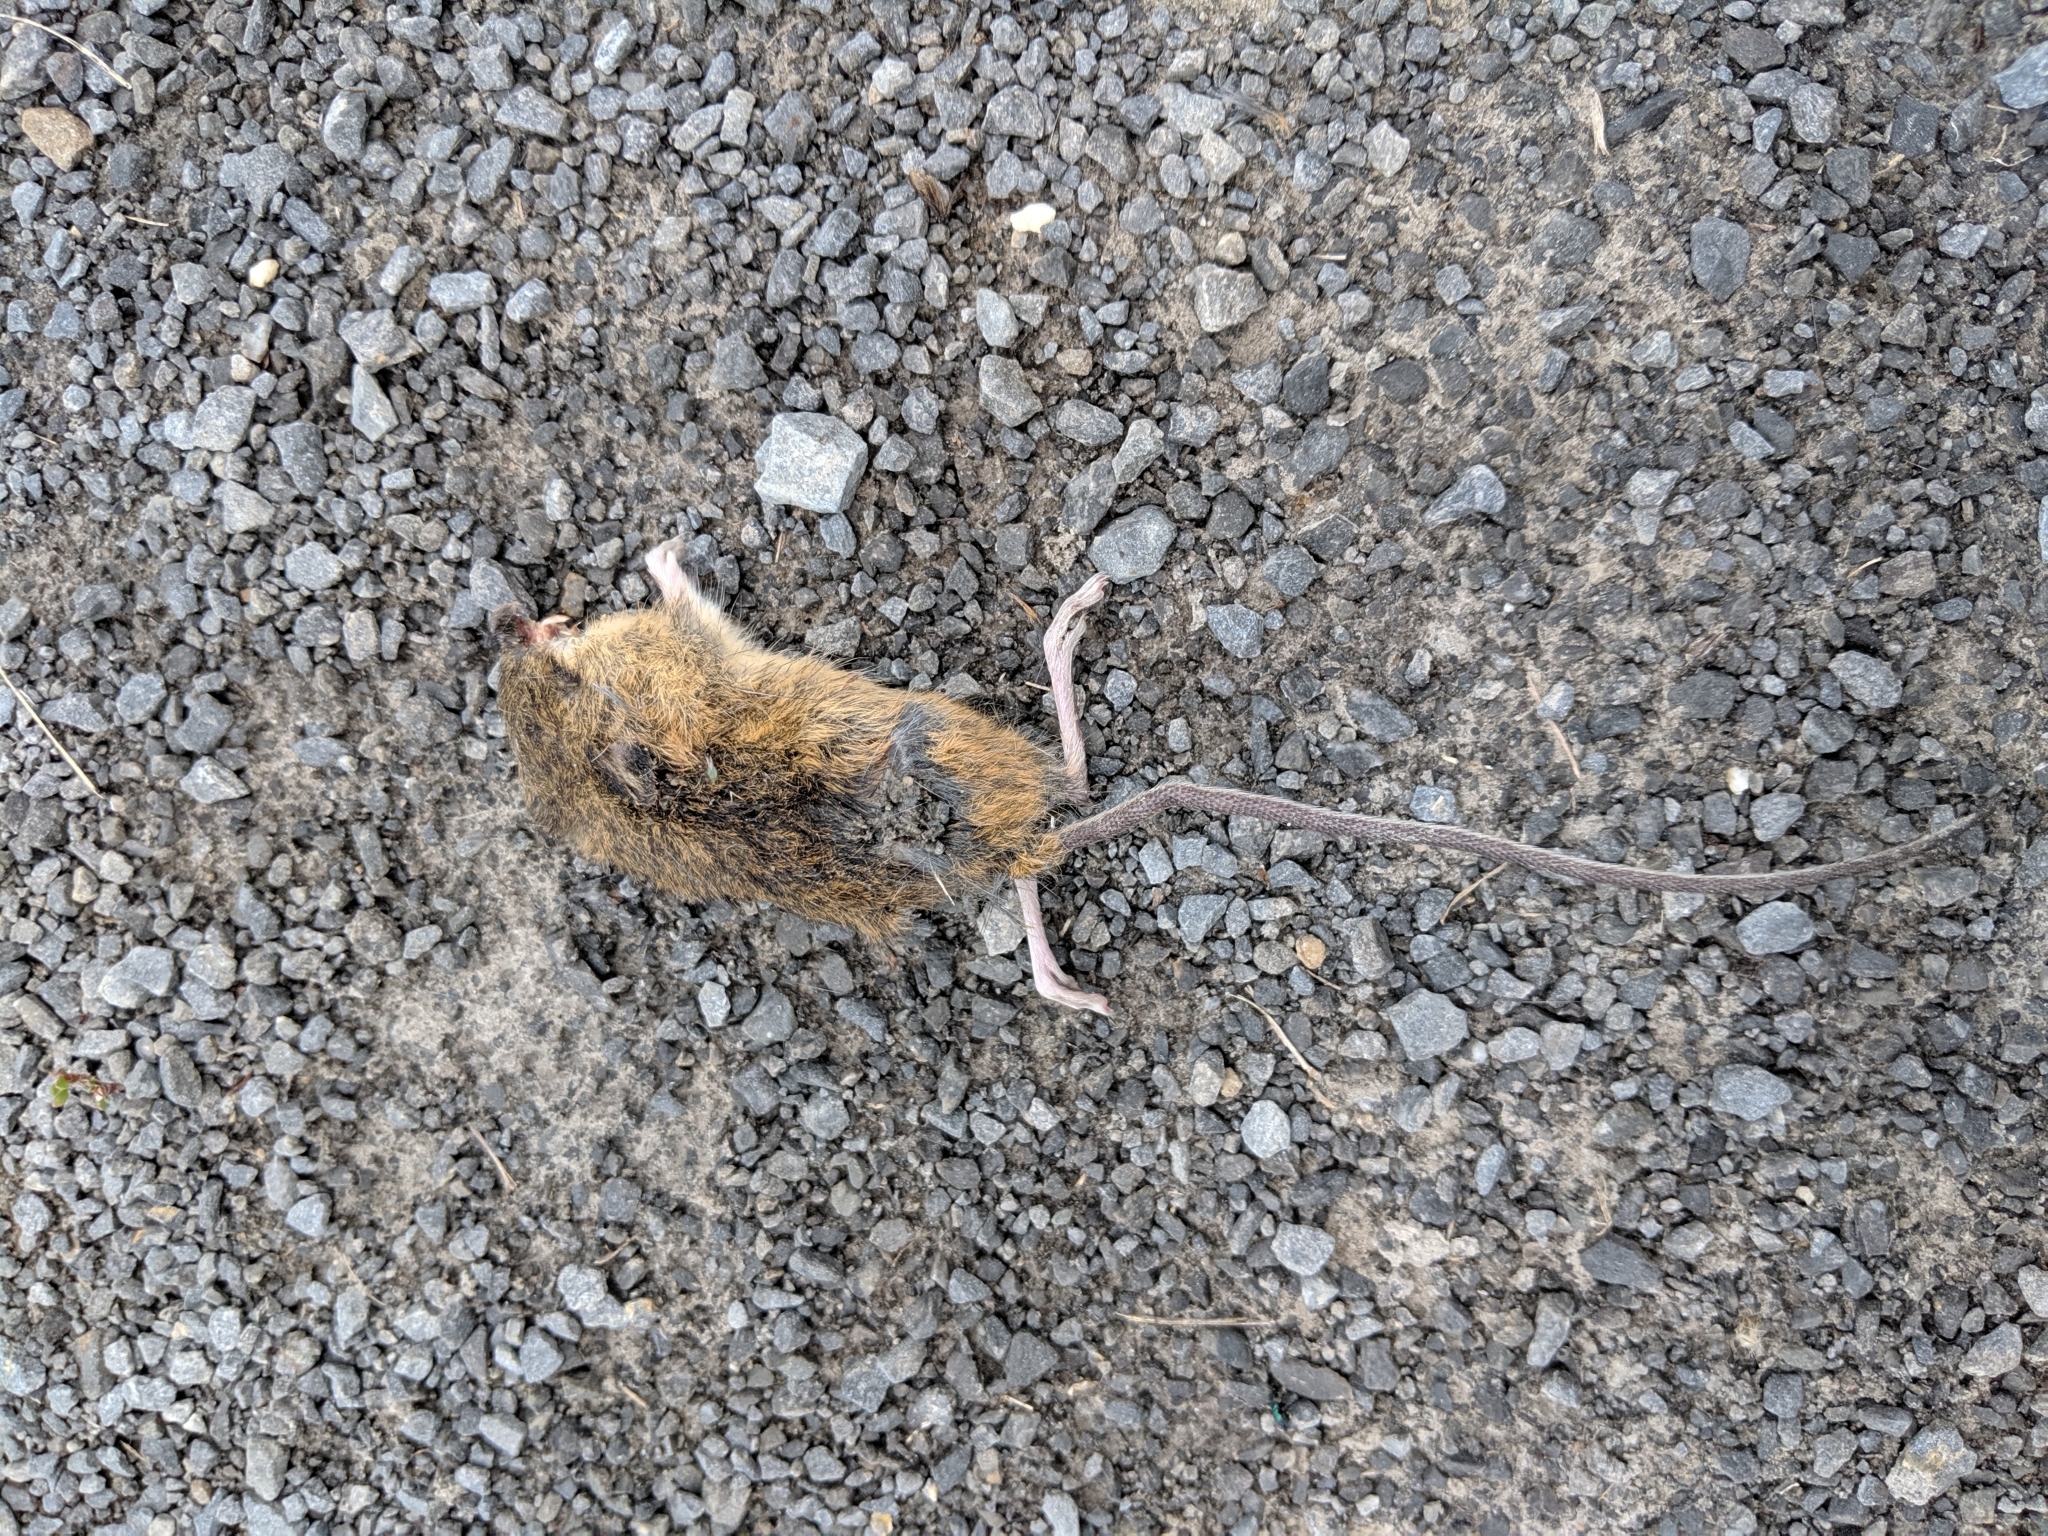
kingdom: Animalia
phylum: Chordata
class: Mammalia
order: Rodentia
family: Dipodidae
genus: Zapus
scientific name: Zapus hudsonius
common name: Meadow jumping mouse
